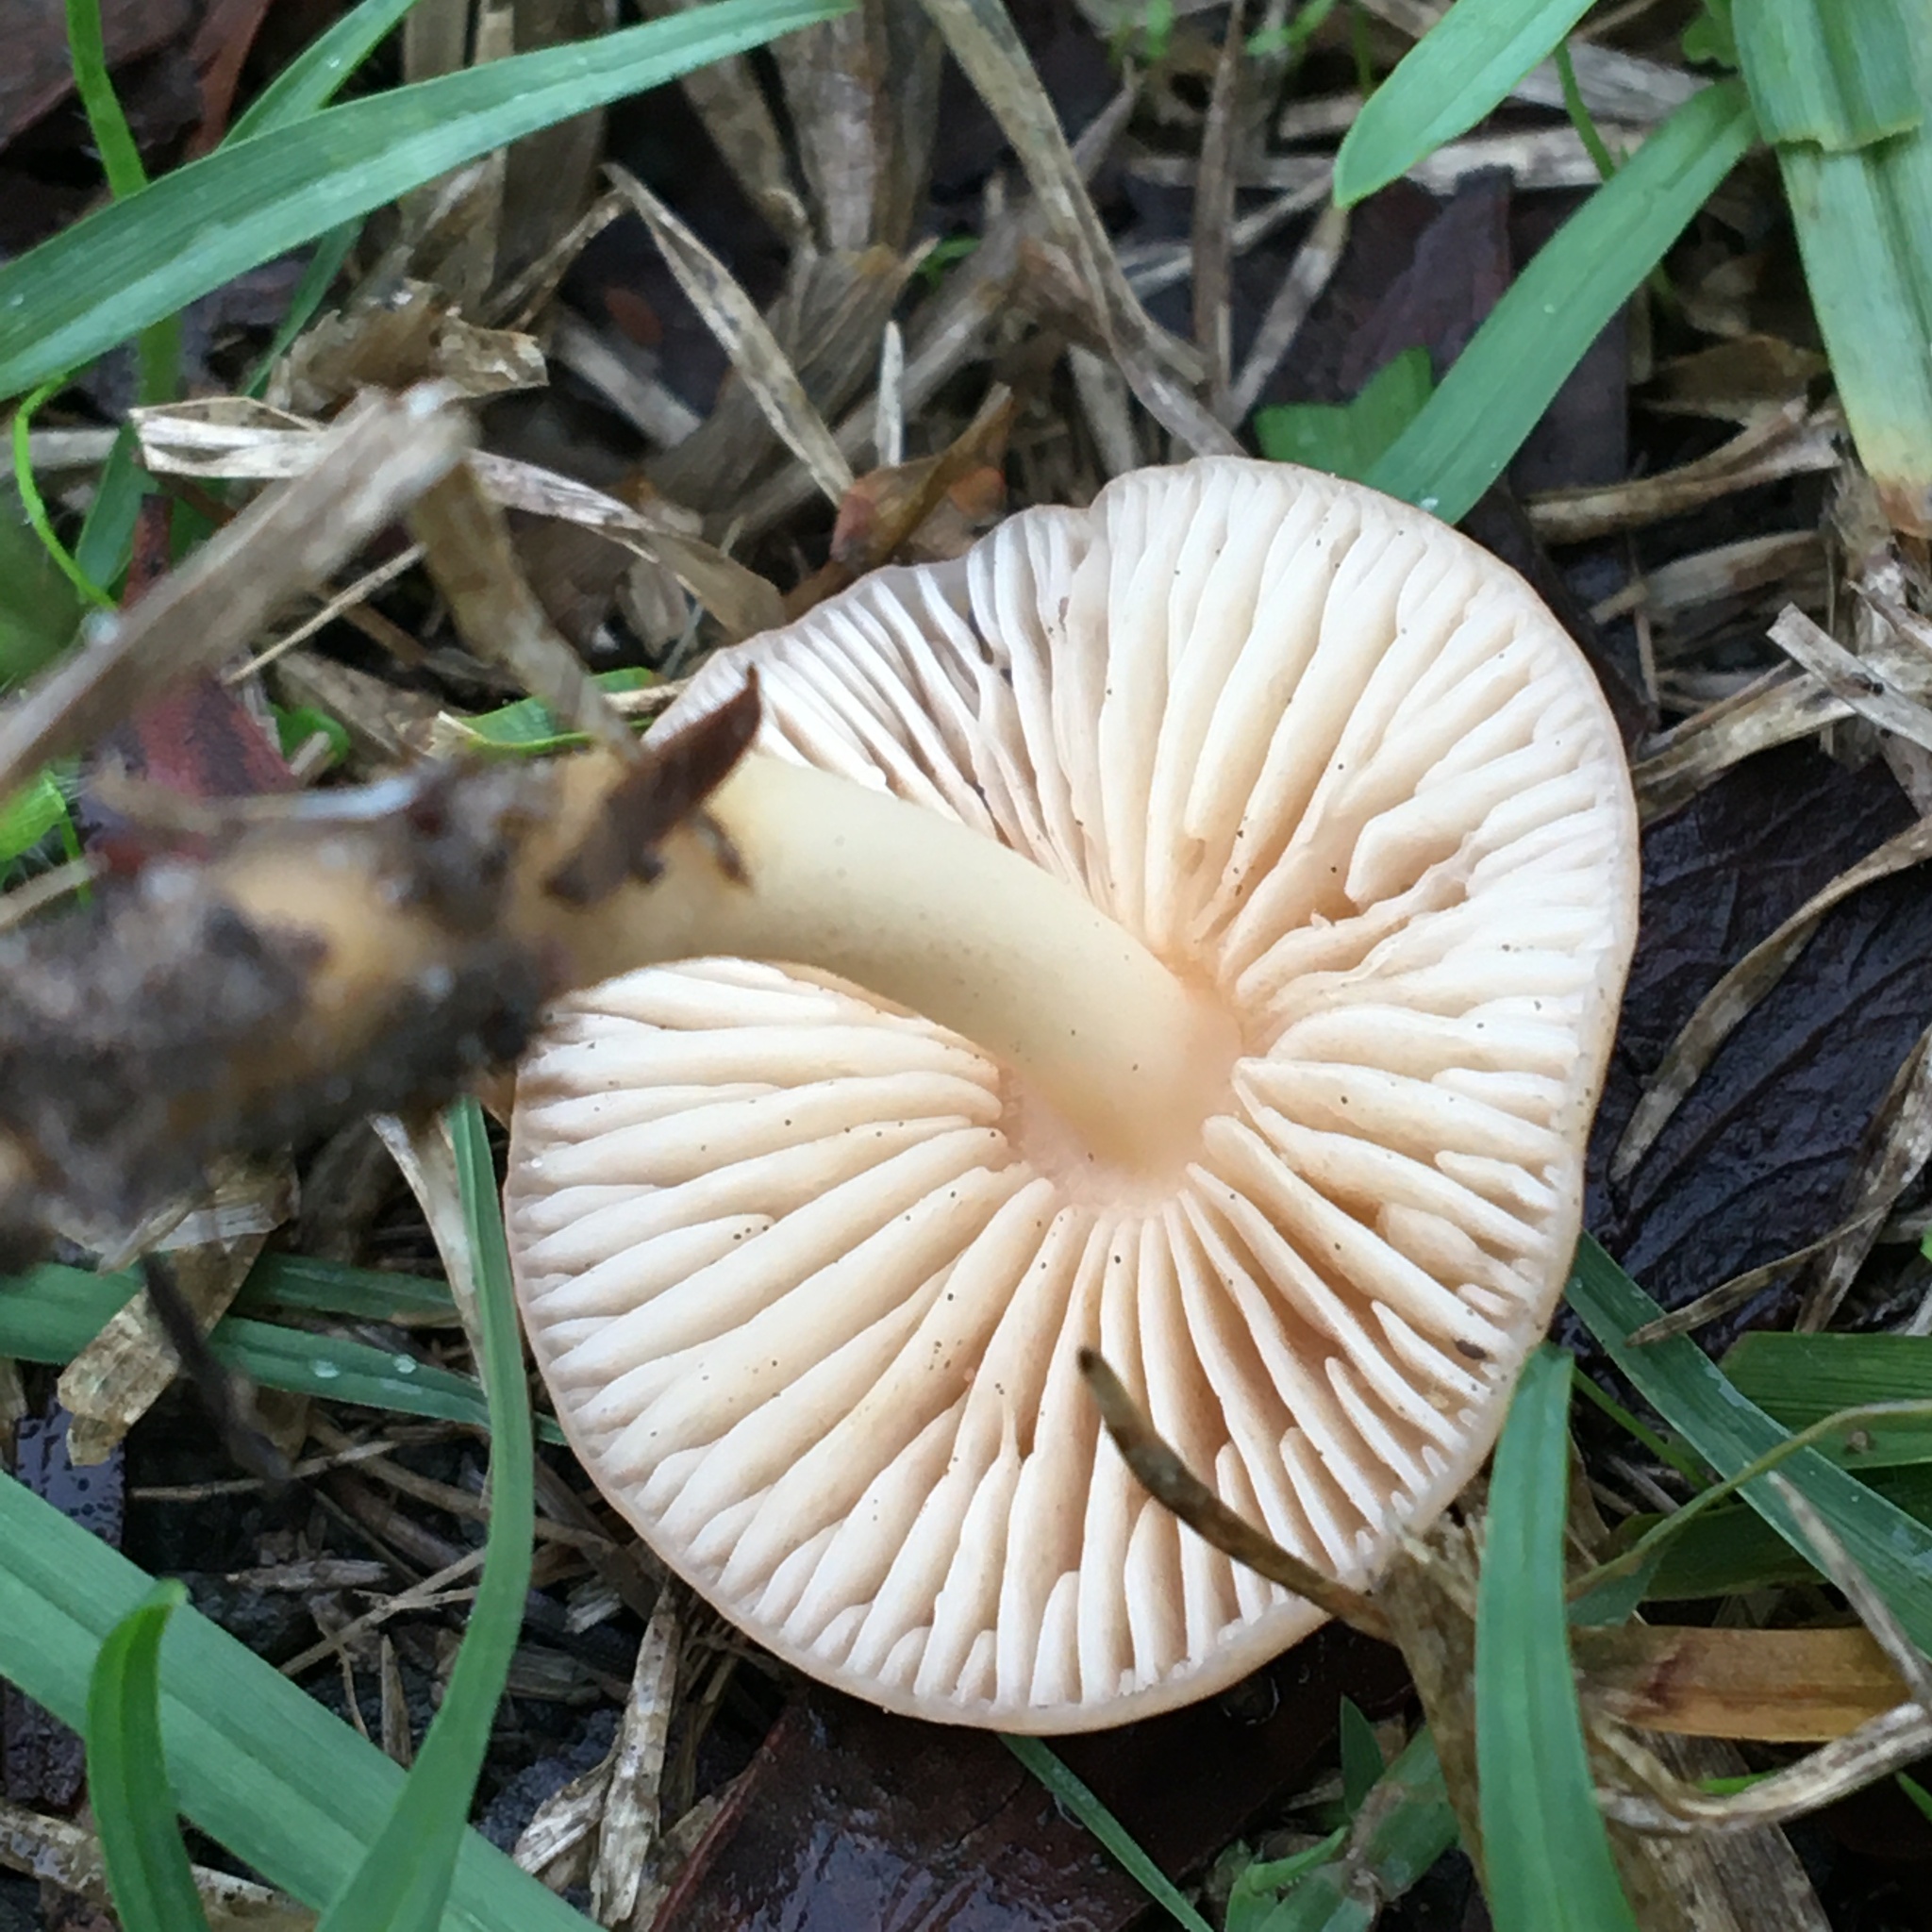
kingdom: Fungi
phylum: Basidiomycota
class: Agaricomycetes
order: Agaricales
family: Marasmiaceae
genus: Marasmius
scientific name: Marasmius oreades
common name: Fairy ring champignon
